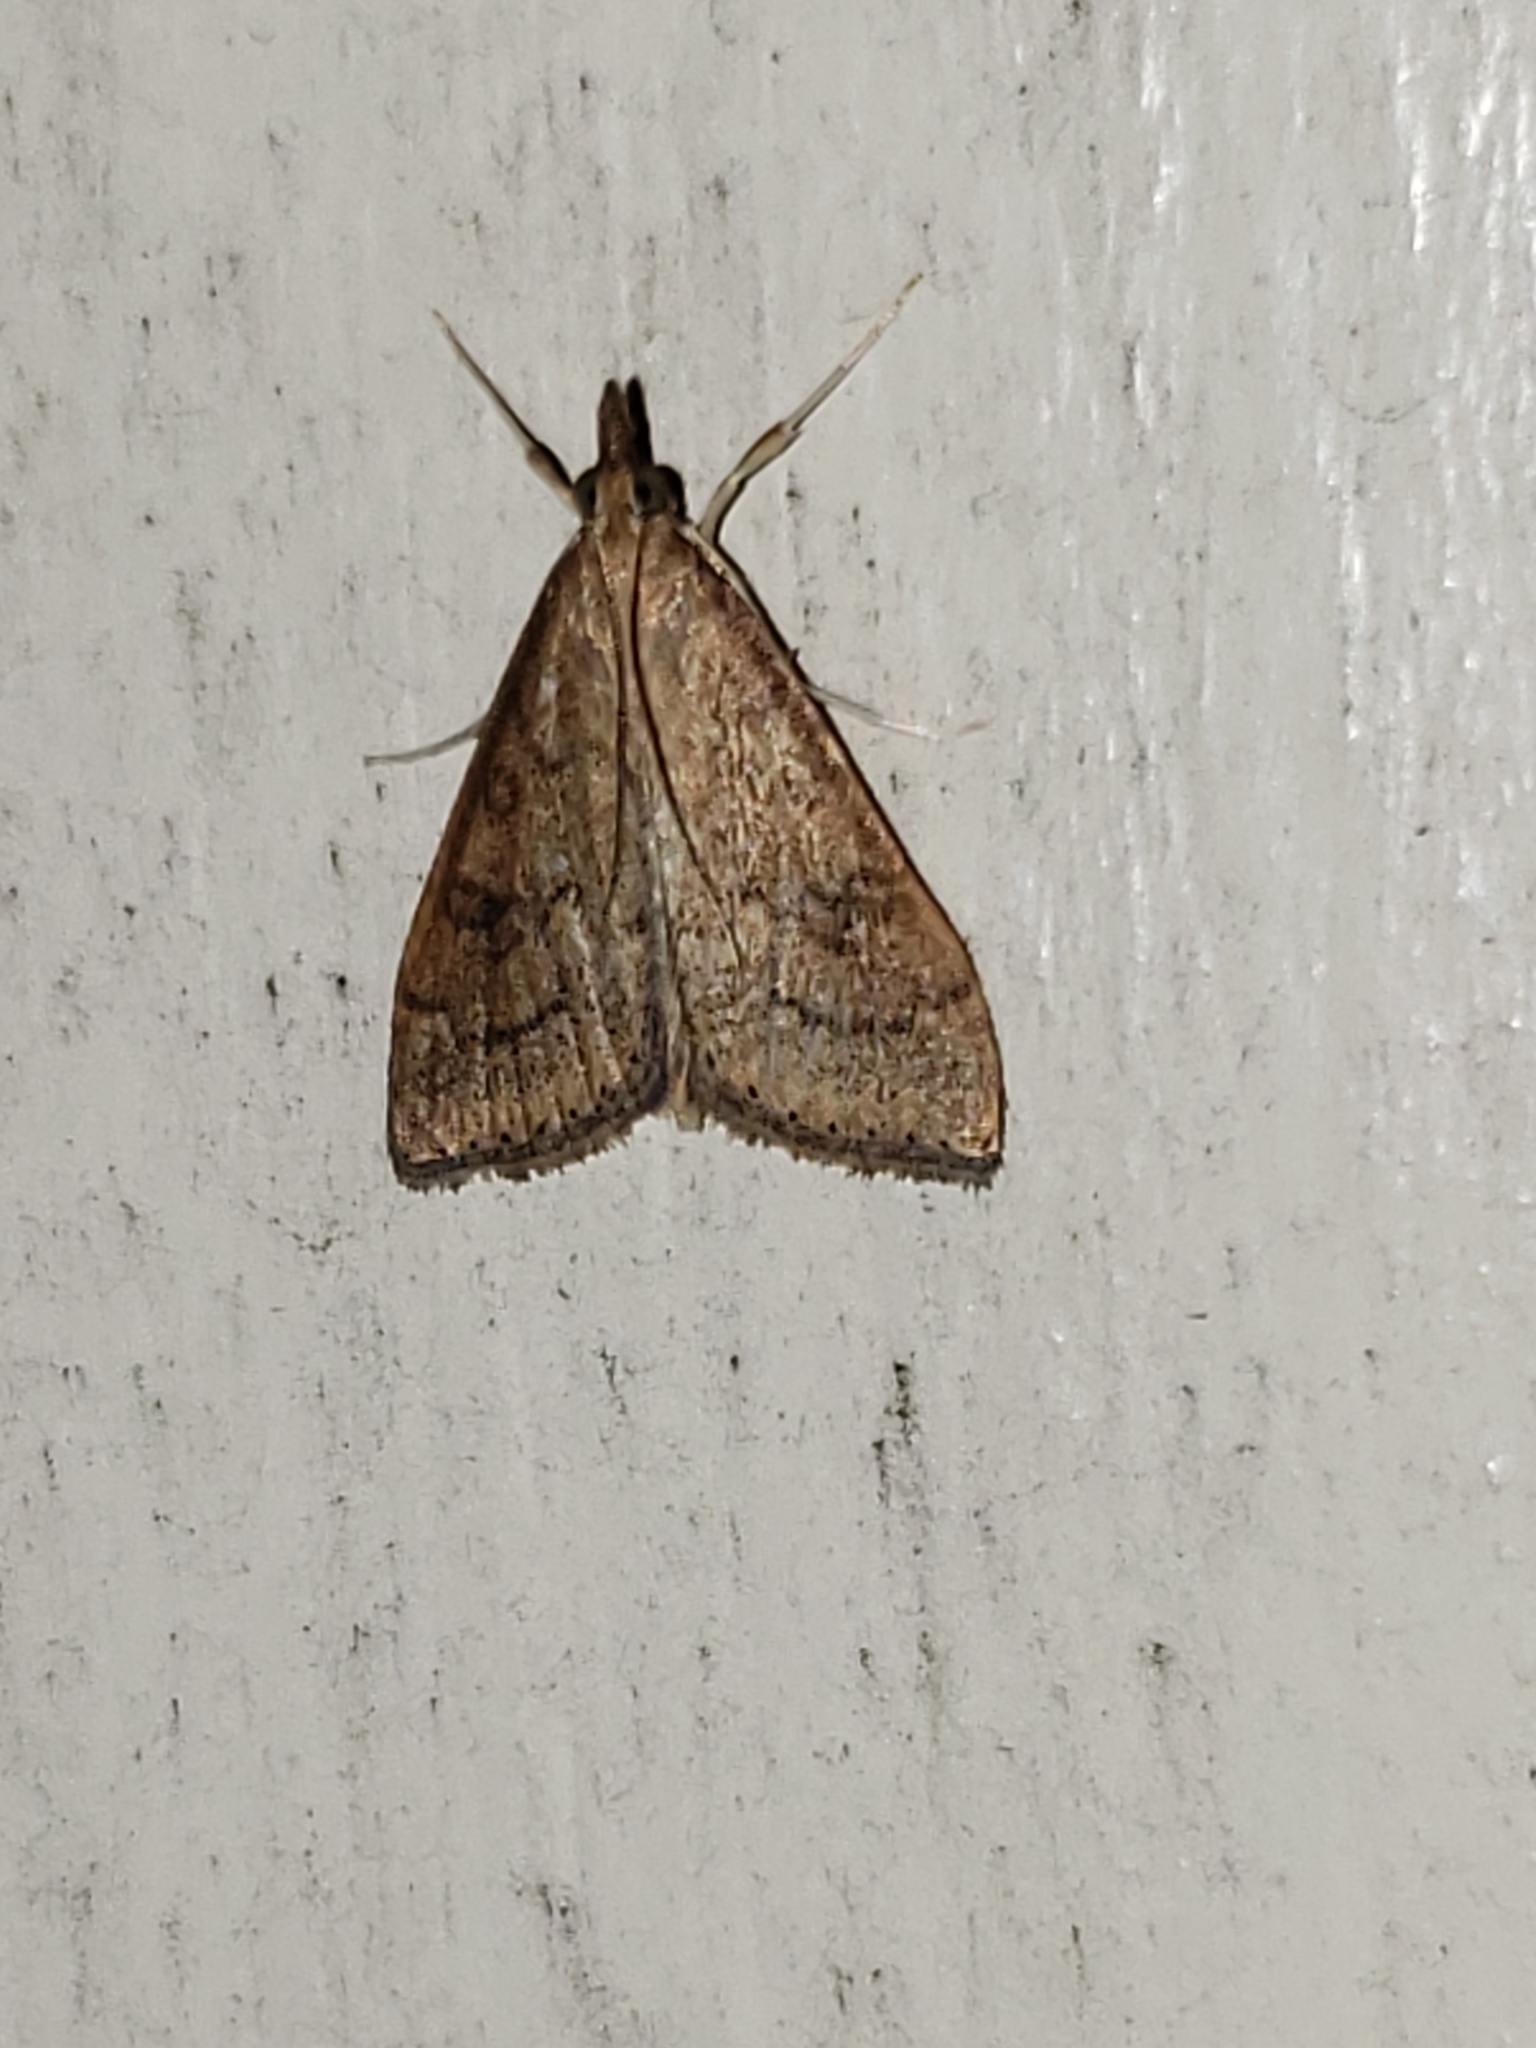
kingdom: Animalia
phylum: Arthropoda
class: Insecta
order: Lepidoptera
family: Crambidae
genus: Udea
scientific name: Udea rubigalis
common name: Celery leaftier moth
